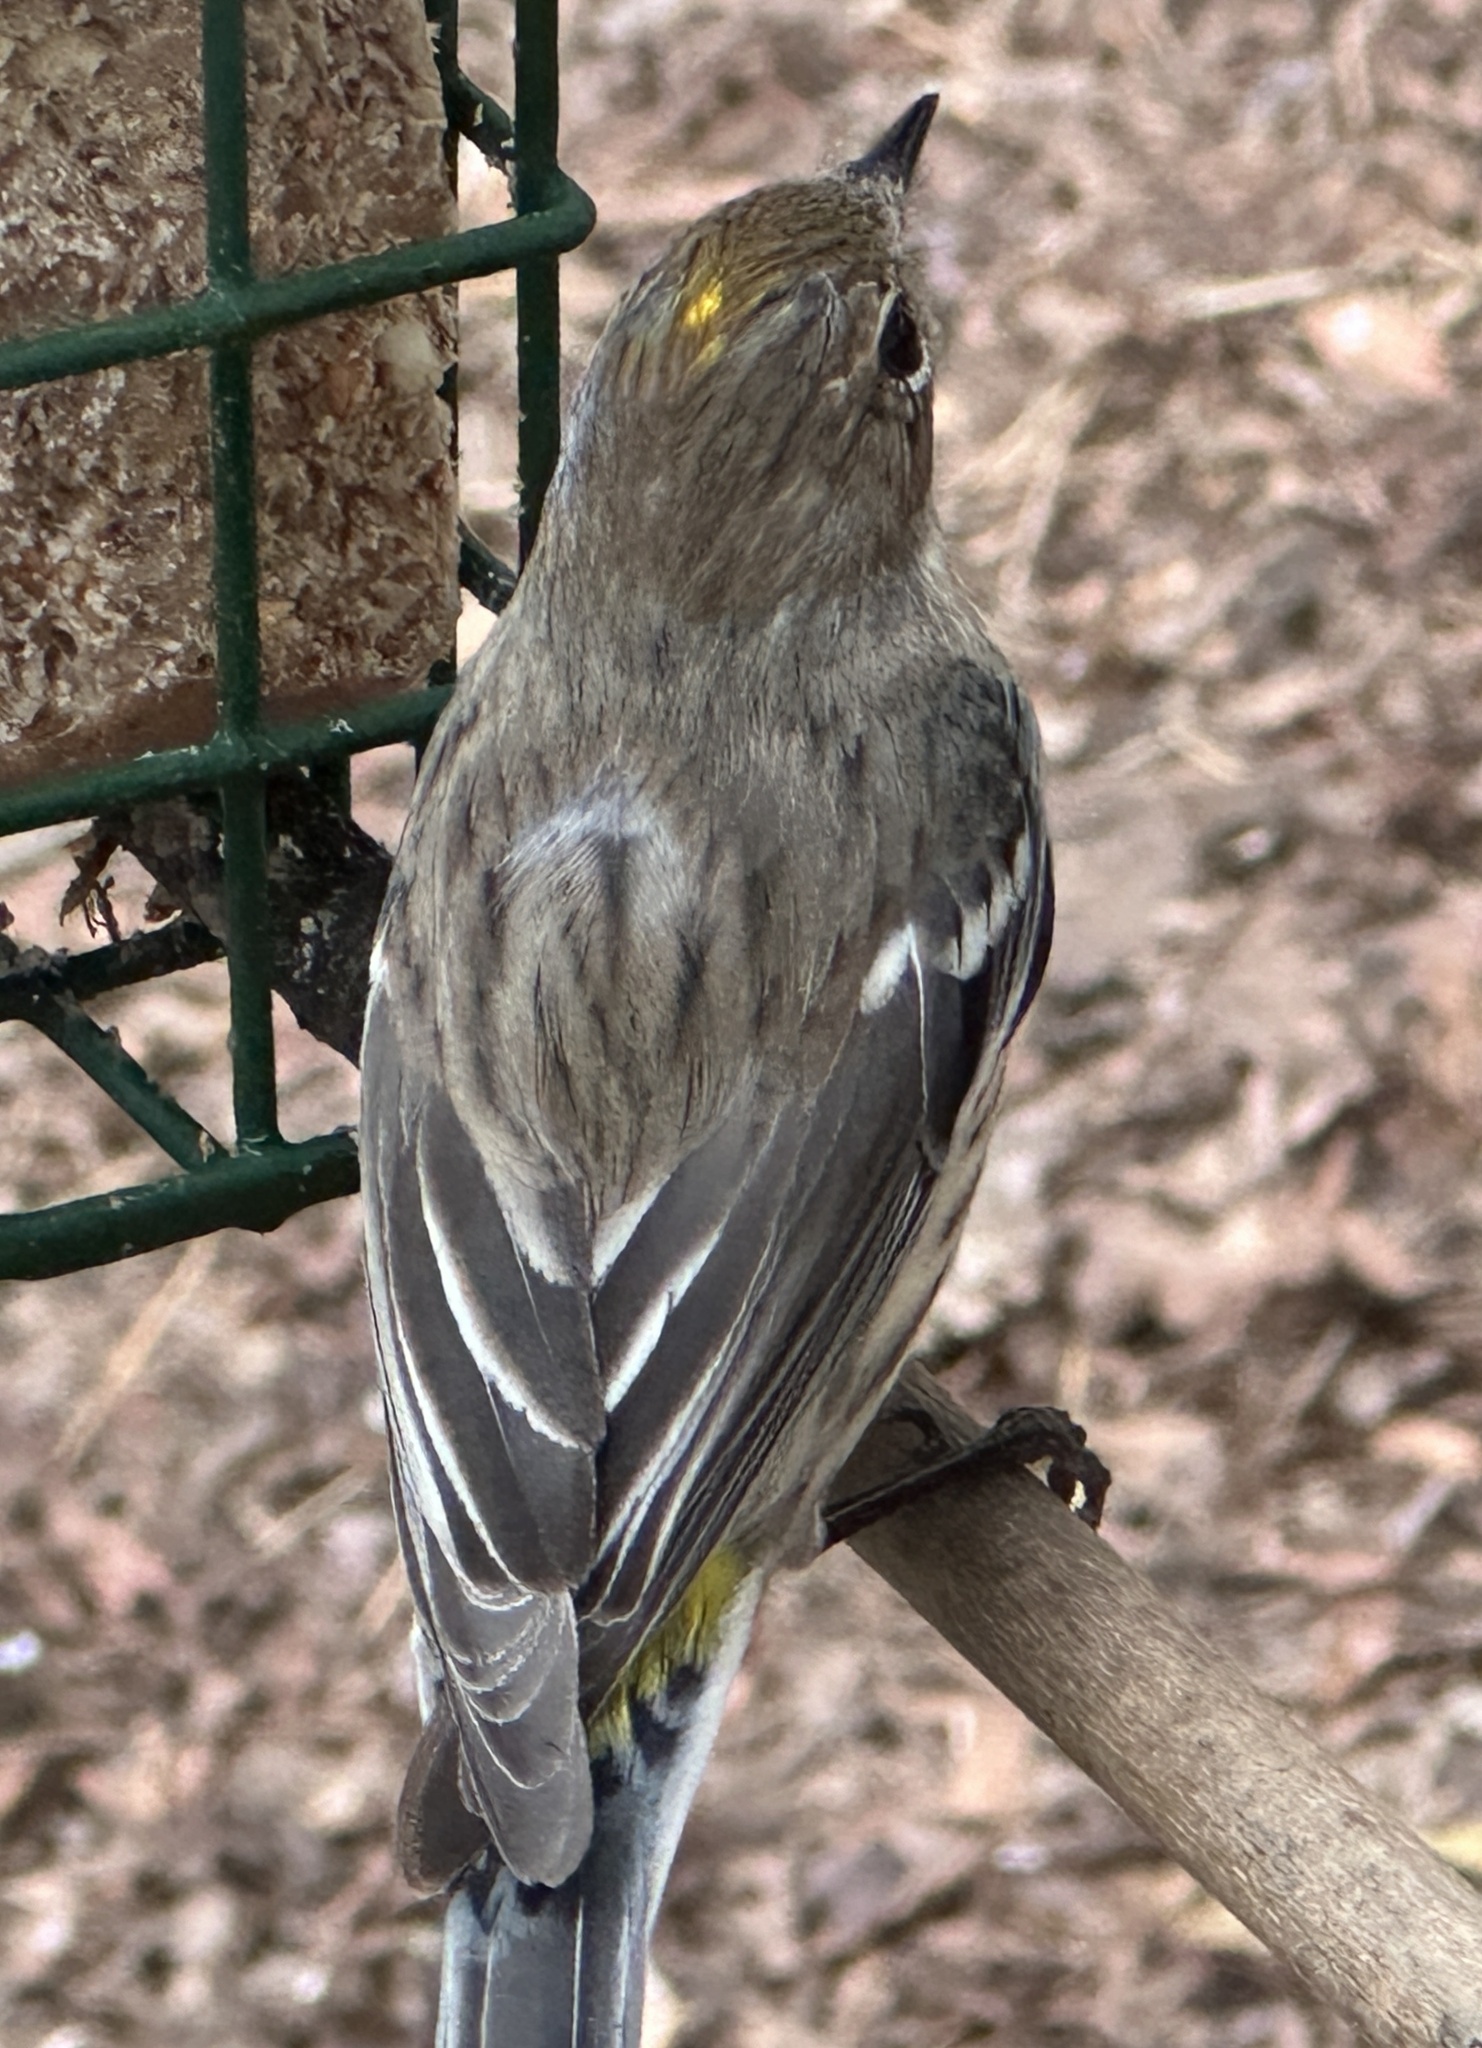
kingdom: Animalia
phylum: Chordata
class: Aves
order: Passeriformes
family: Parulidae
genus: Setophaga
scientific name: Setophaga coronata
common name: Myrtle warbler
